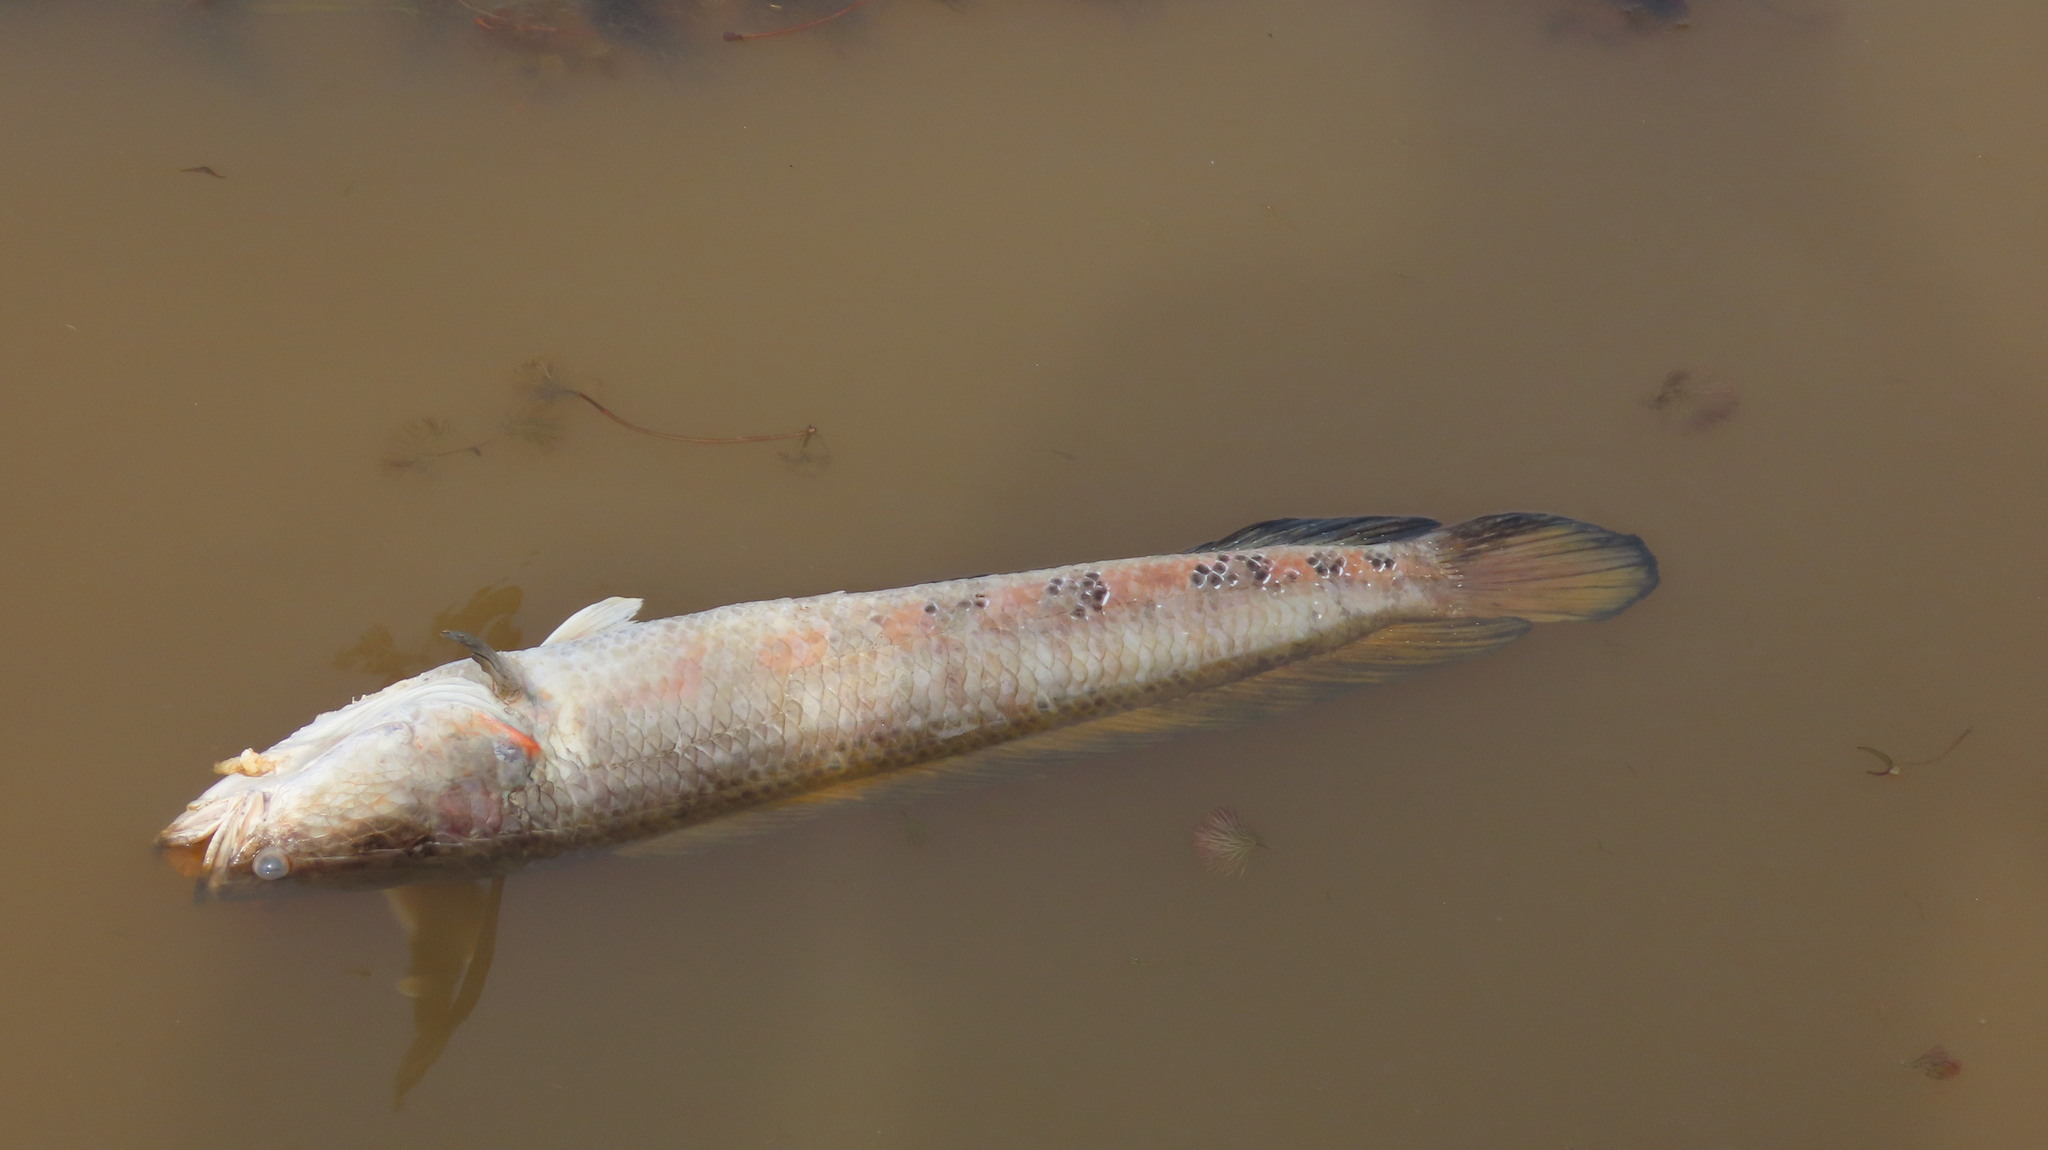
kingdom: Animalia
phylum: Chordata
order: Perciformes
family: Channidae
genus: Channa
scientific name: Channa marulius
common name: Giant snakehead
